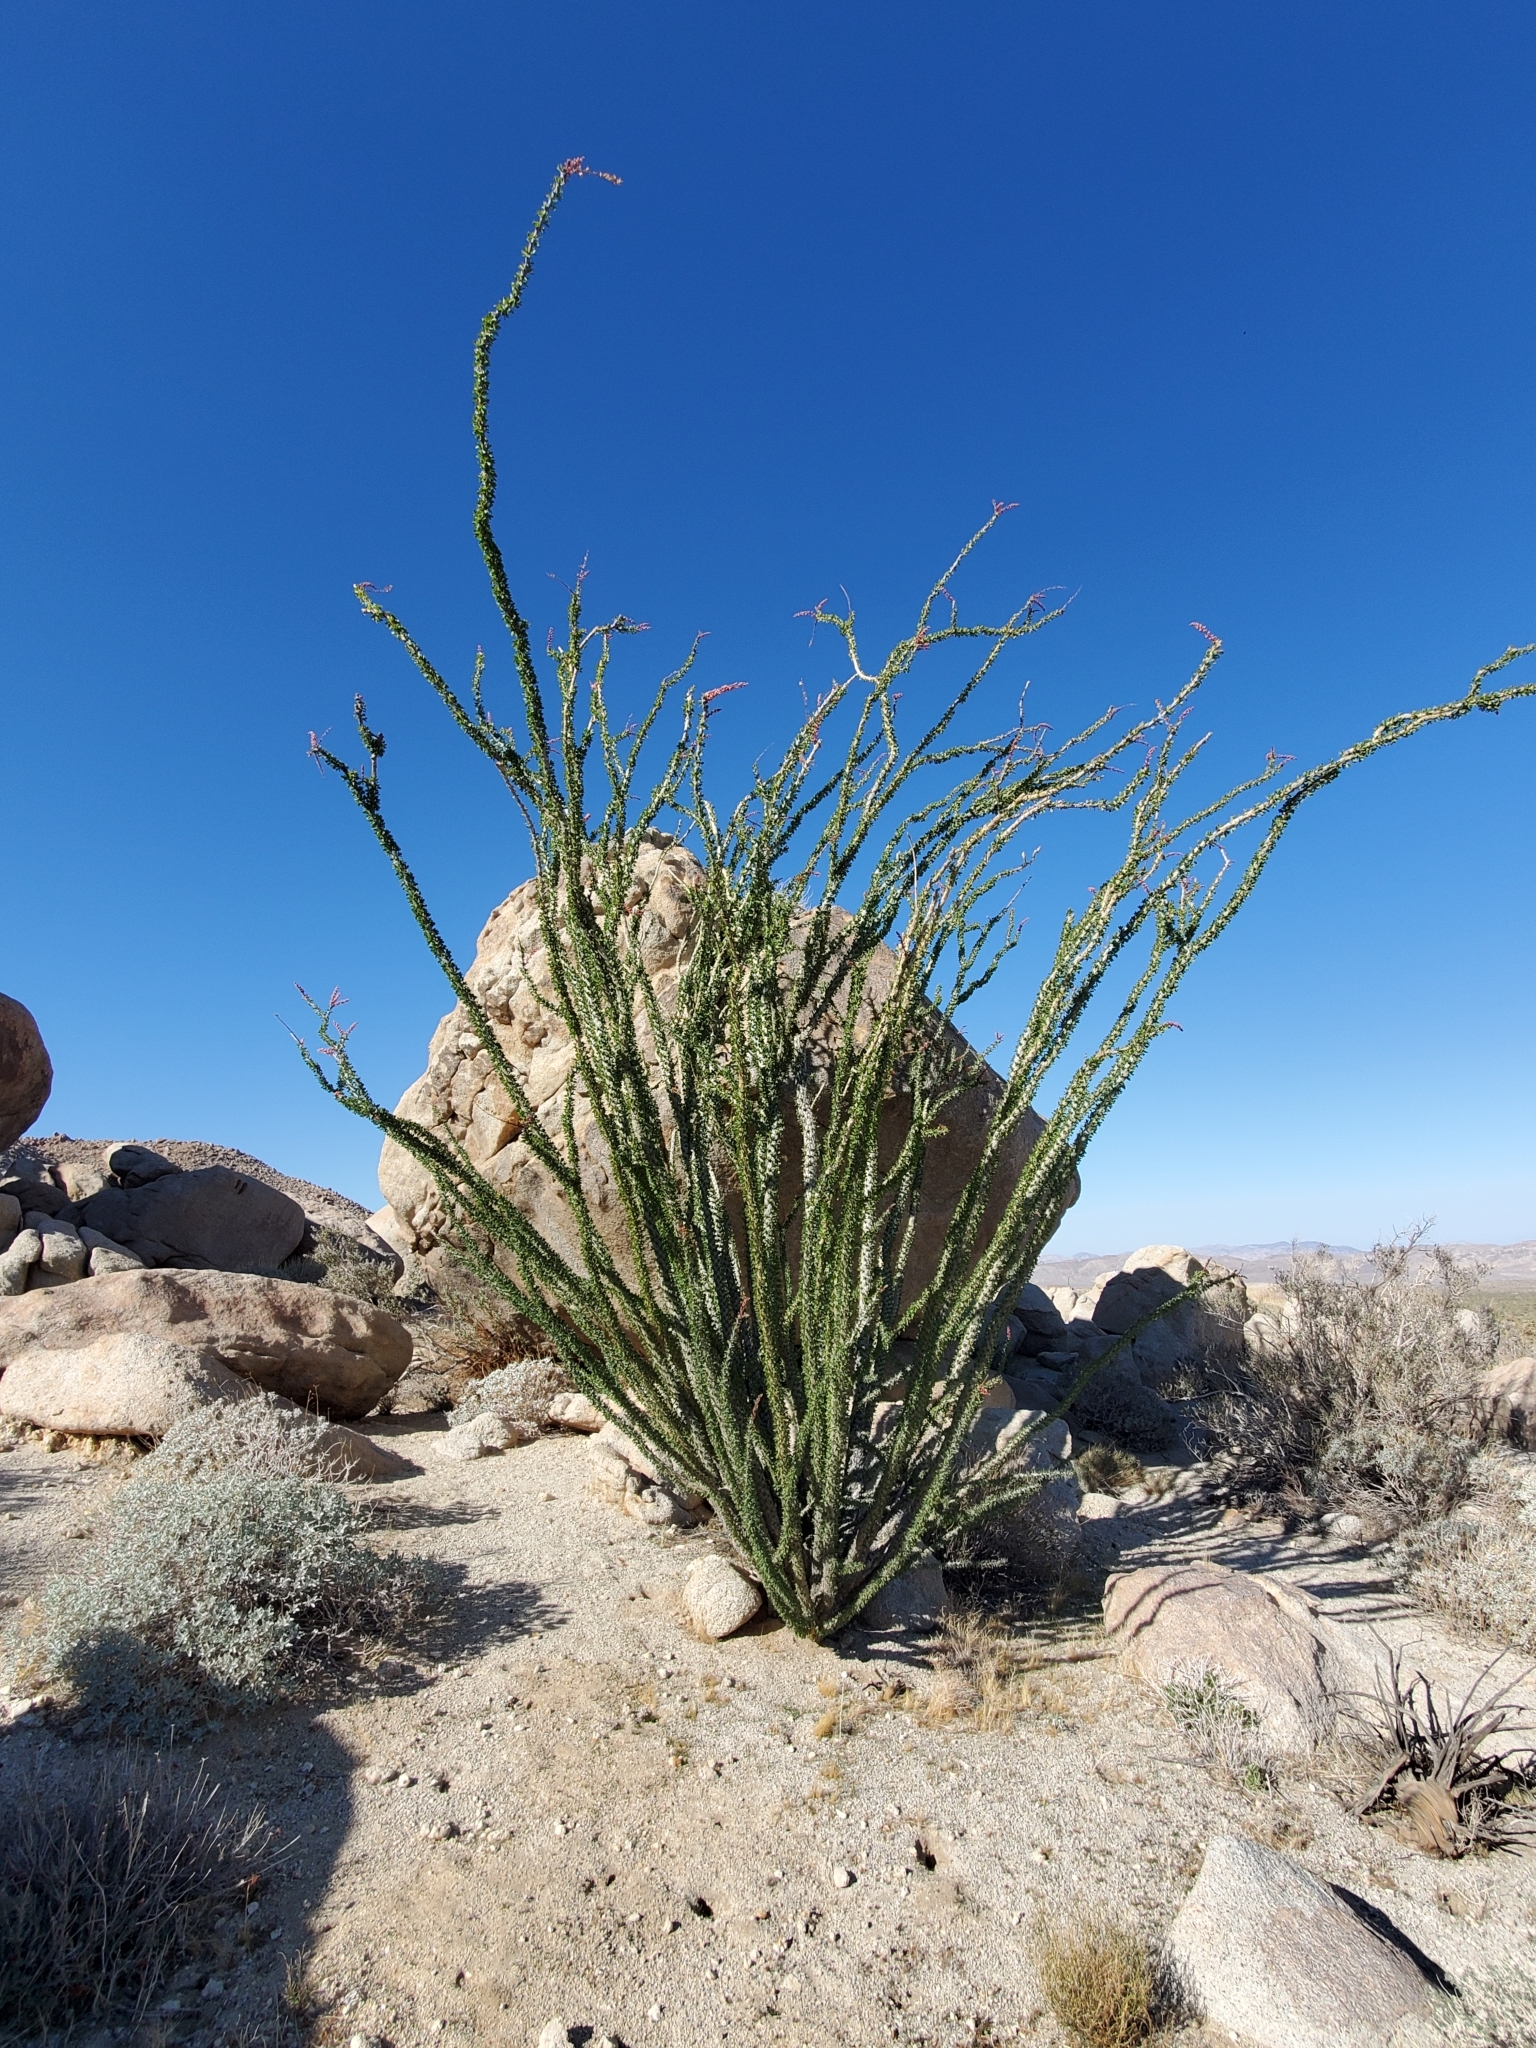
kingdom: Plantae
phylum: Tracheophyta
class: Magnoliopsida
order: Ericales
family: Fouquieriaceae
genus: Fouquieria
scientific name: Fouquieria splendens
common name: Vine-cactus
